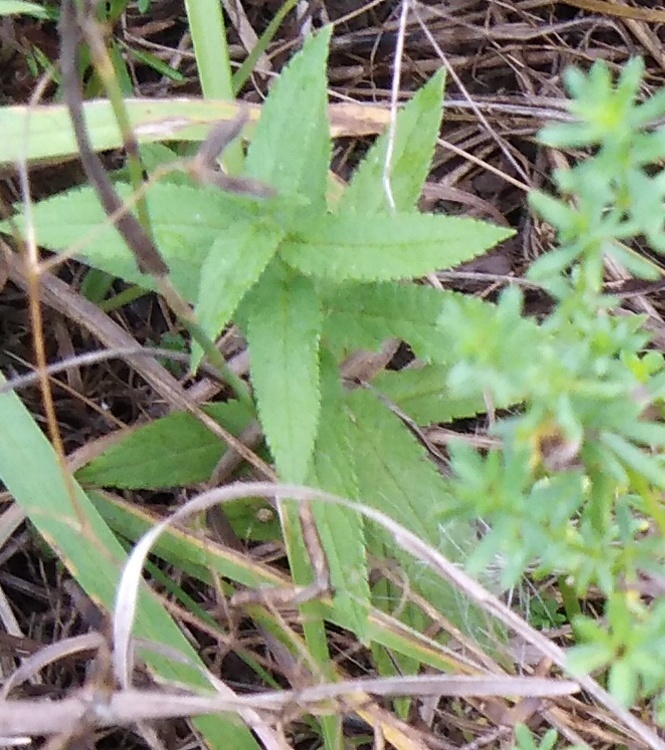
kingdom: Plantae
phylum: Tracheophyta
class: Magnoliopsida
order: Lamiales
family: Lamiaceae
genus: Stachys
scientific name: Stachys palustris
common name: Marsh woundwort
